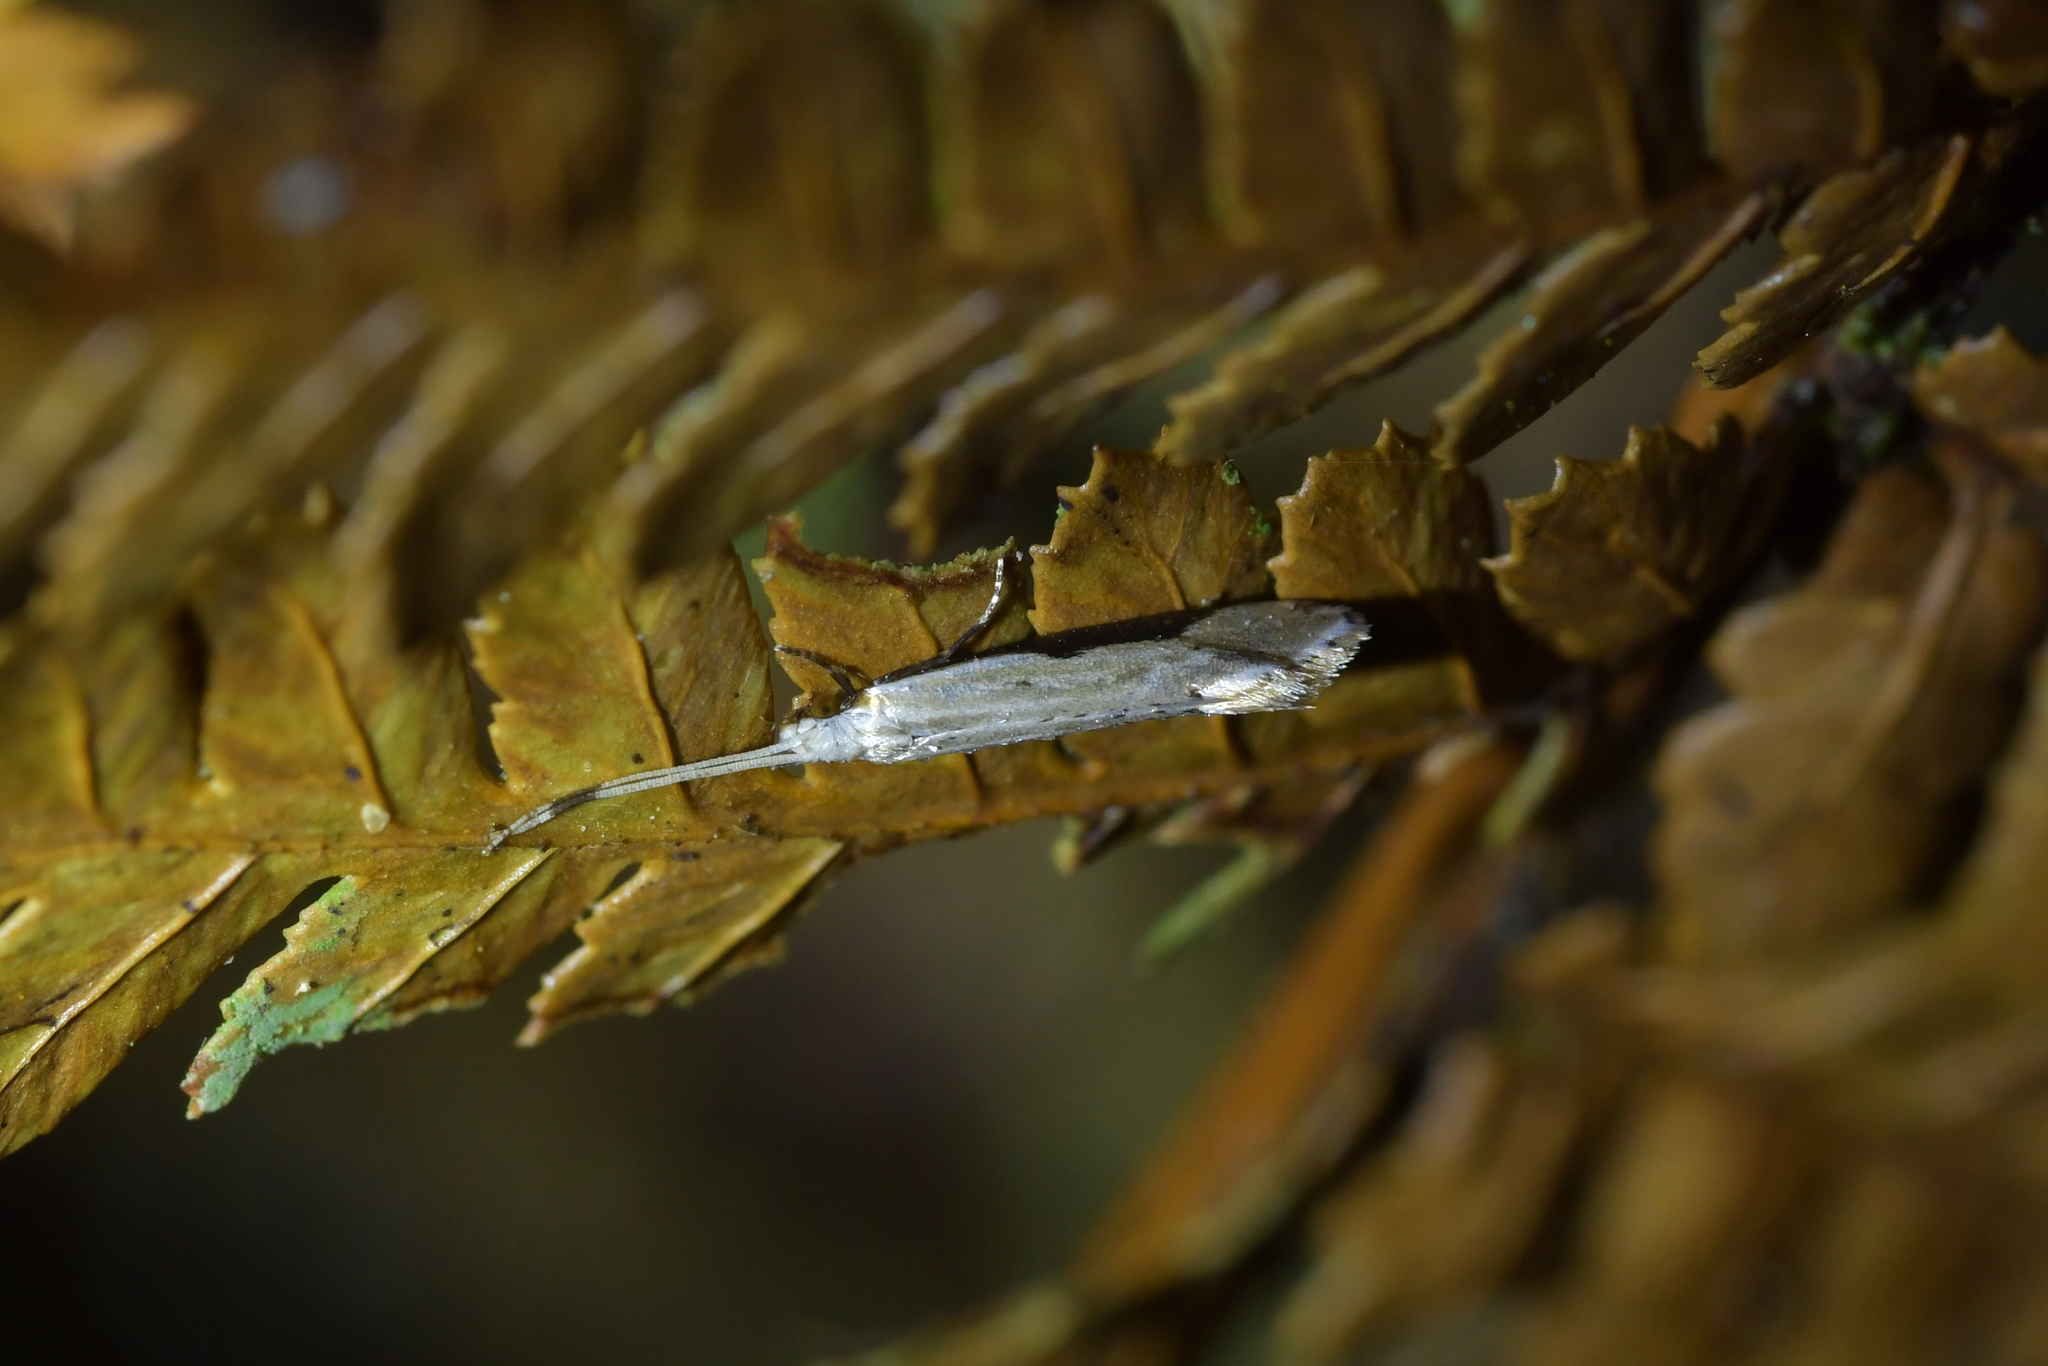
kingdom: Animalia
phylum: Arthropoda
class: Insecta
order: Lepidoptera
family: Tineidae
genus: Sagephora
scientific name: Sagephora phortegella
